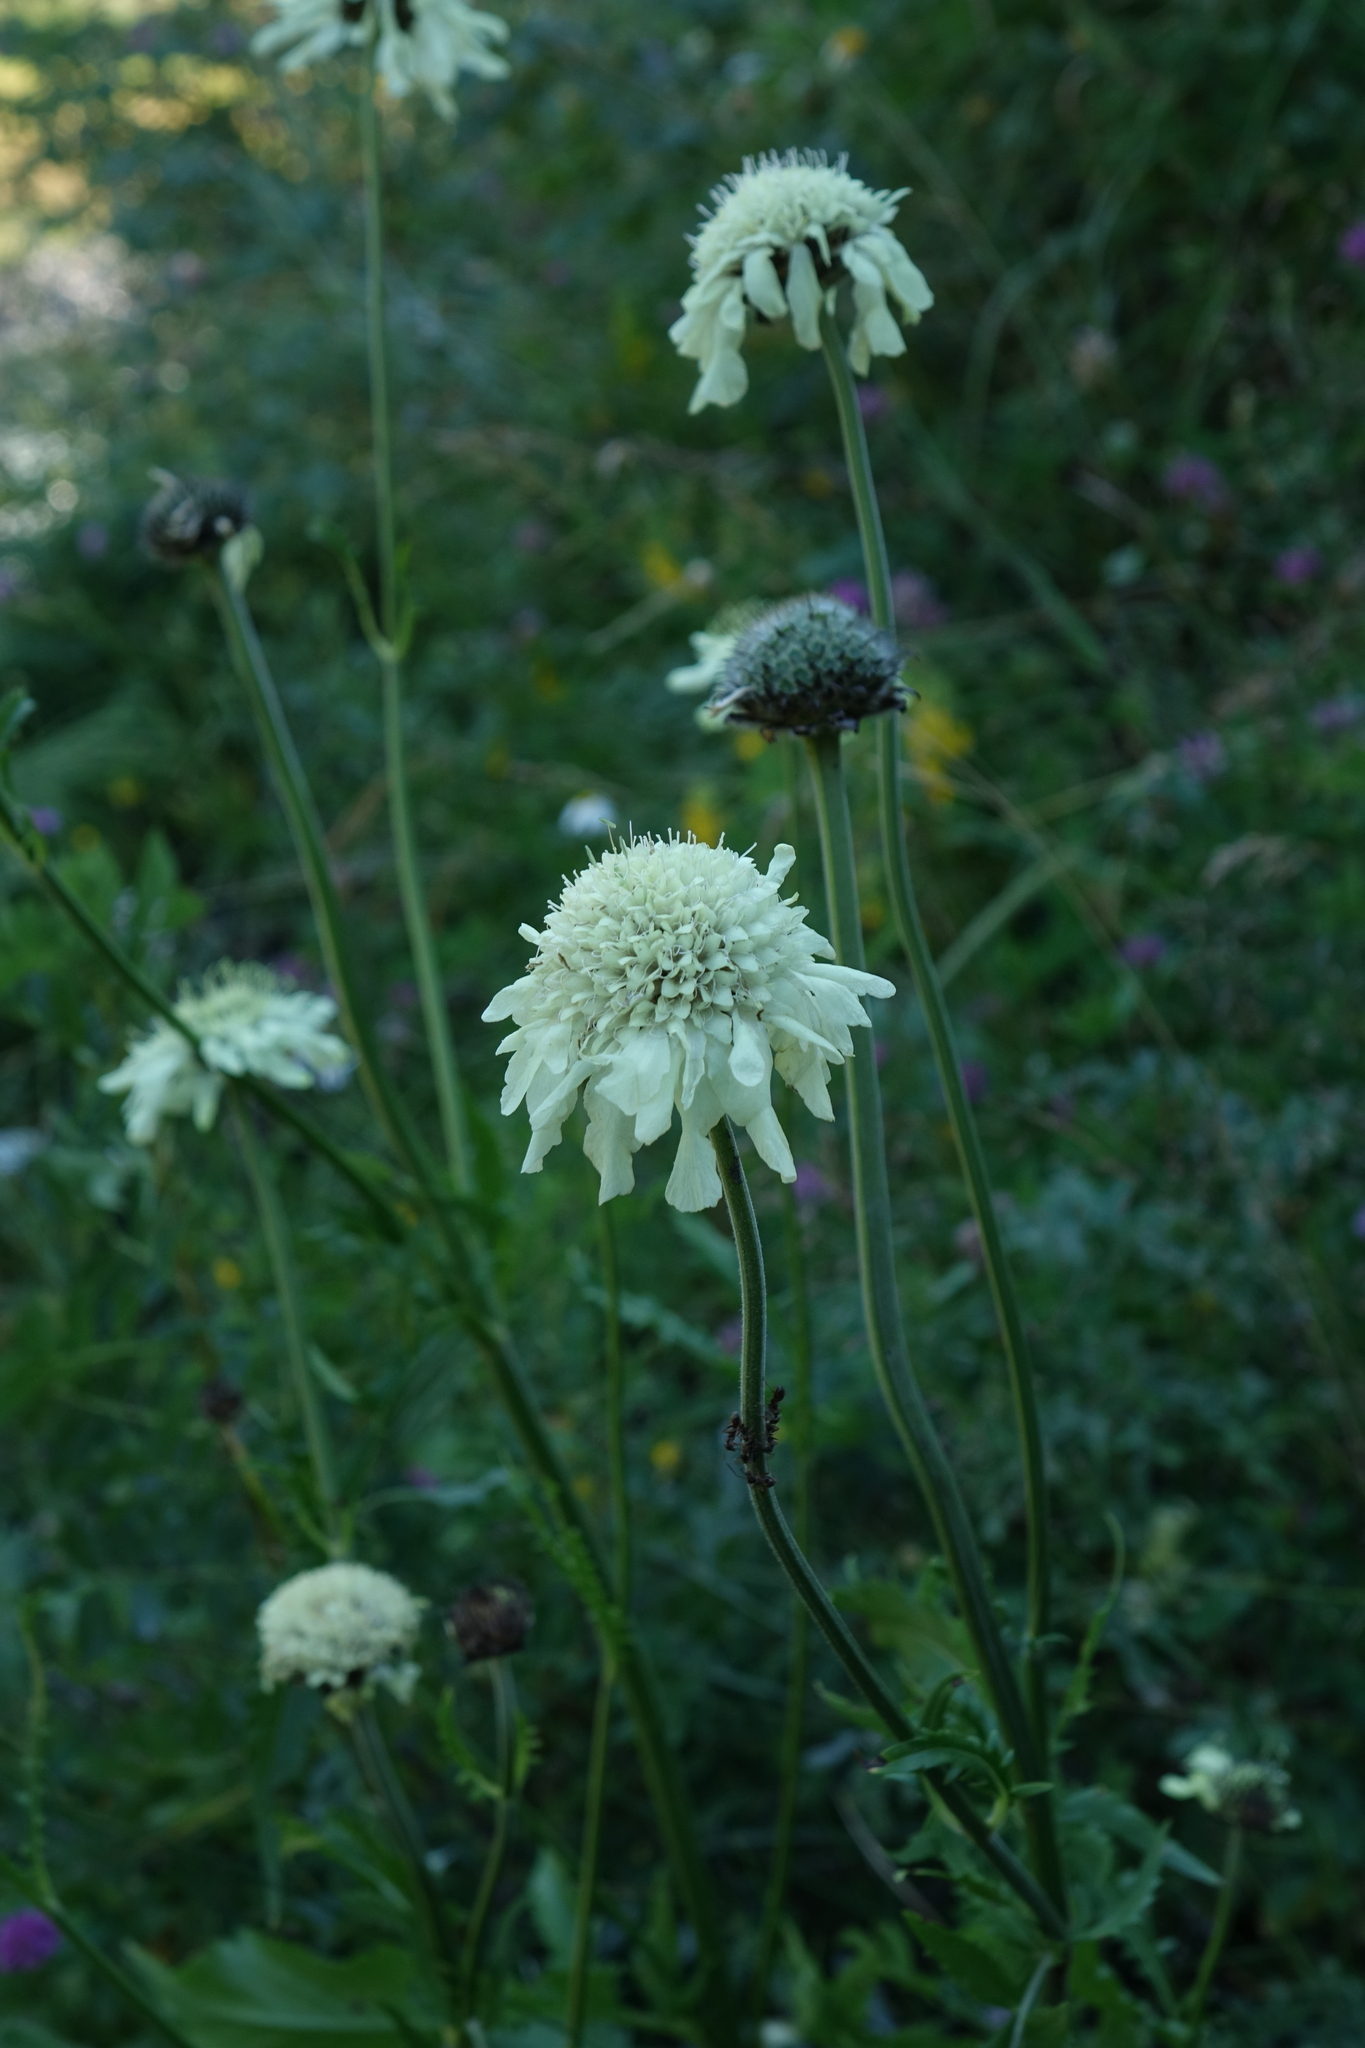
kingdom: Plantae
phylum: Tracheophyta
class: Magnoliopsida
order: Dipsacales
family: Caprifoliaceae
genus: Cephalaria
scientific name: Cephalaria gigantea
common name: Tatarian cephalaria
